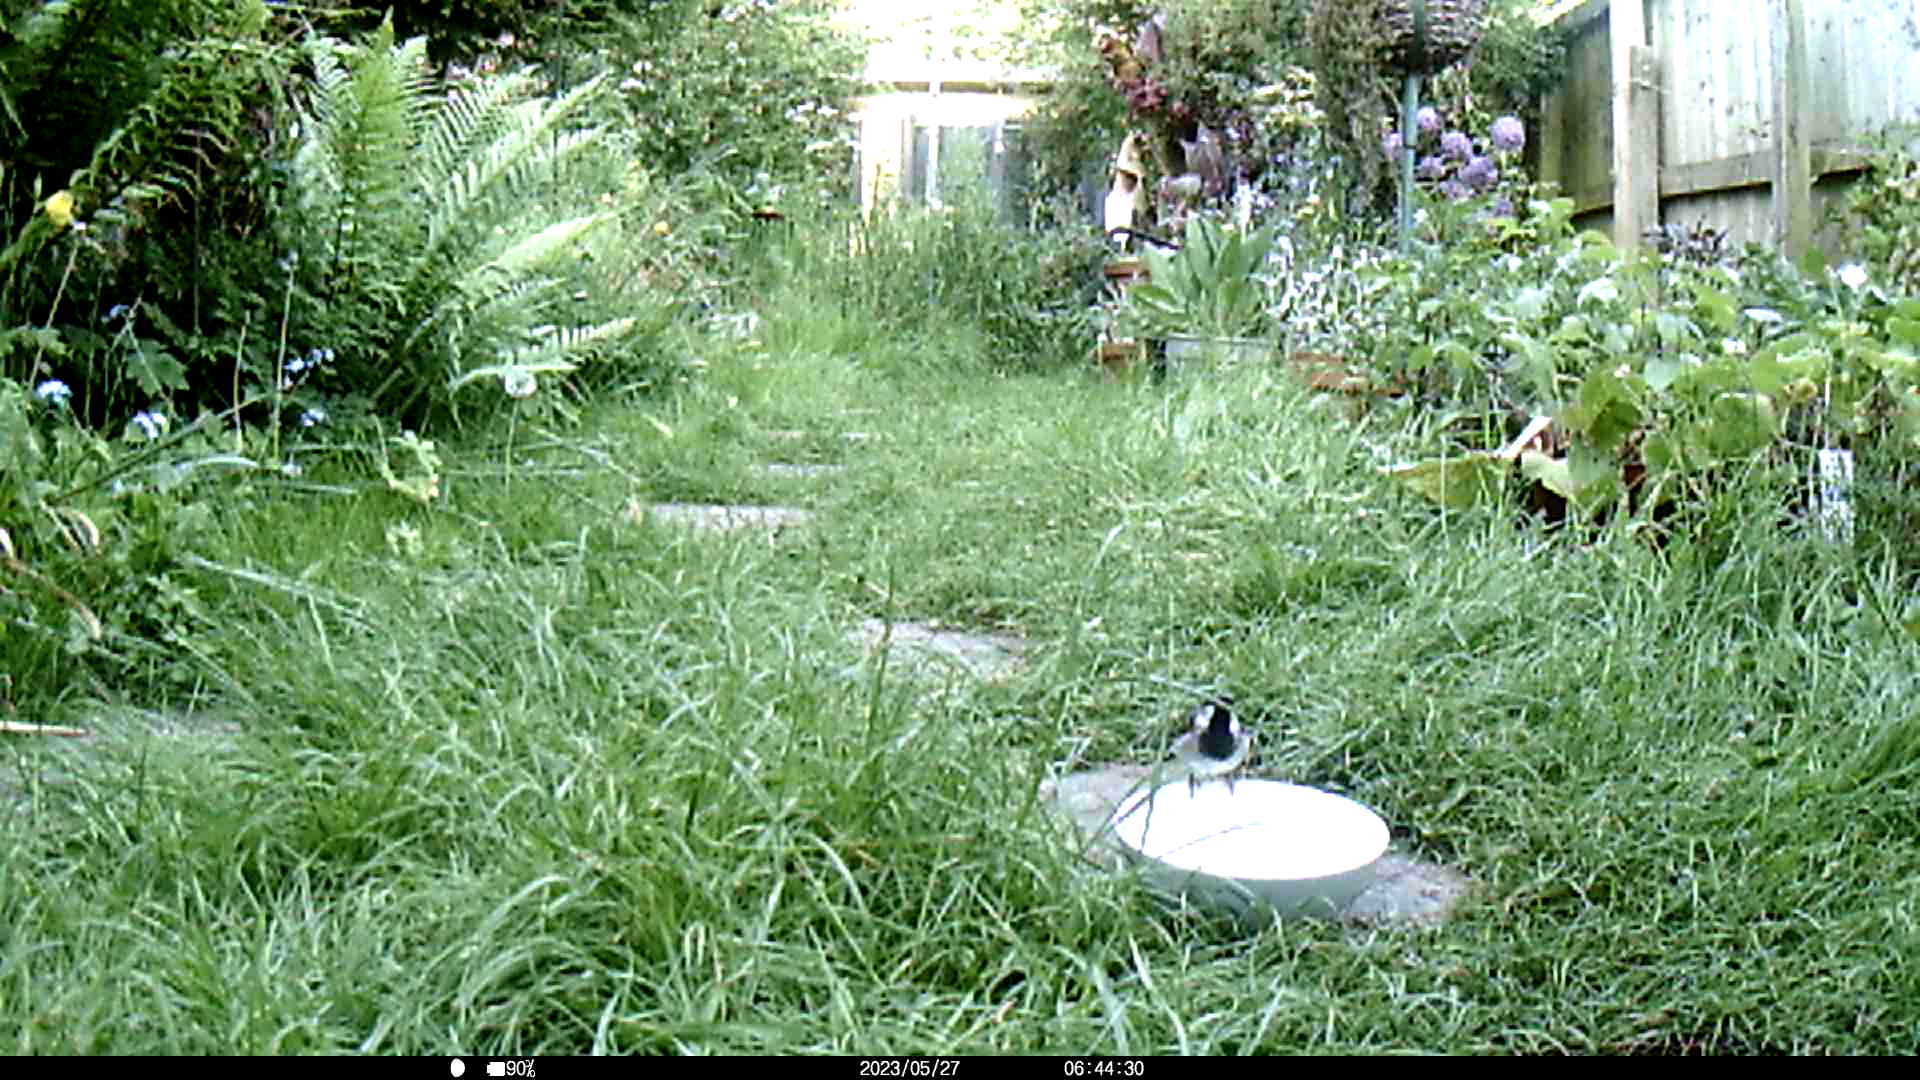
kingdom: Animalia
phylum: Chordata
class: Aves
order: Passeriformes
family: Passeridae
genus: Passer
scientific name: Passer domesticus
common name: House sparrow
